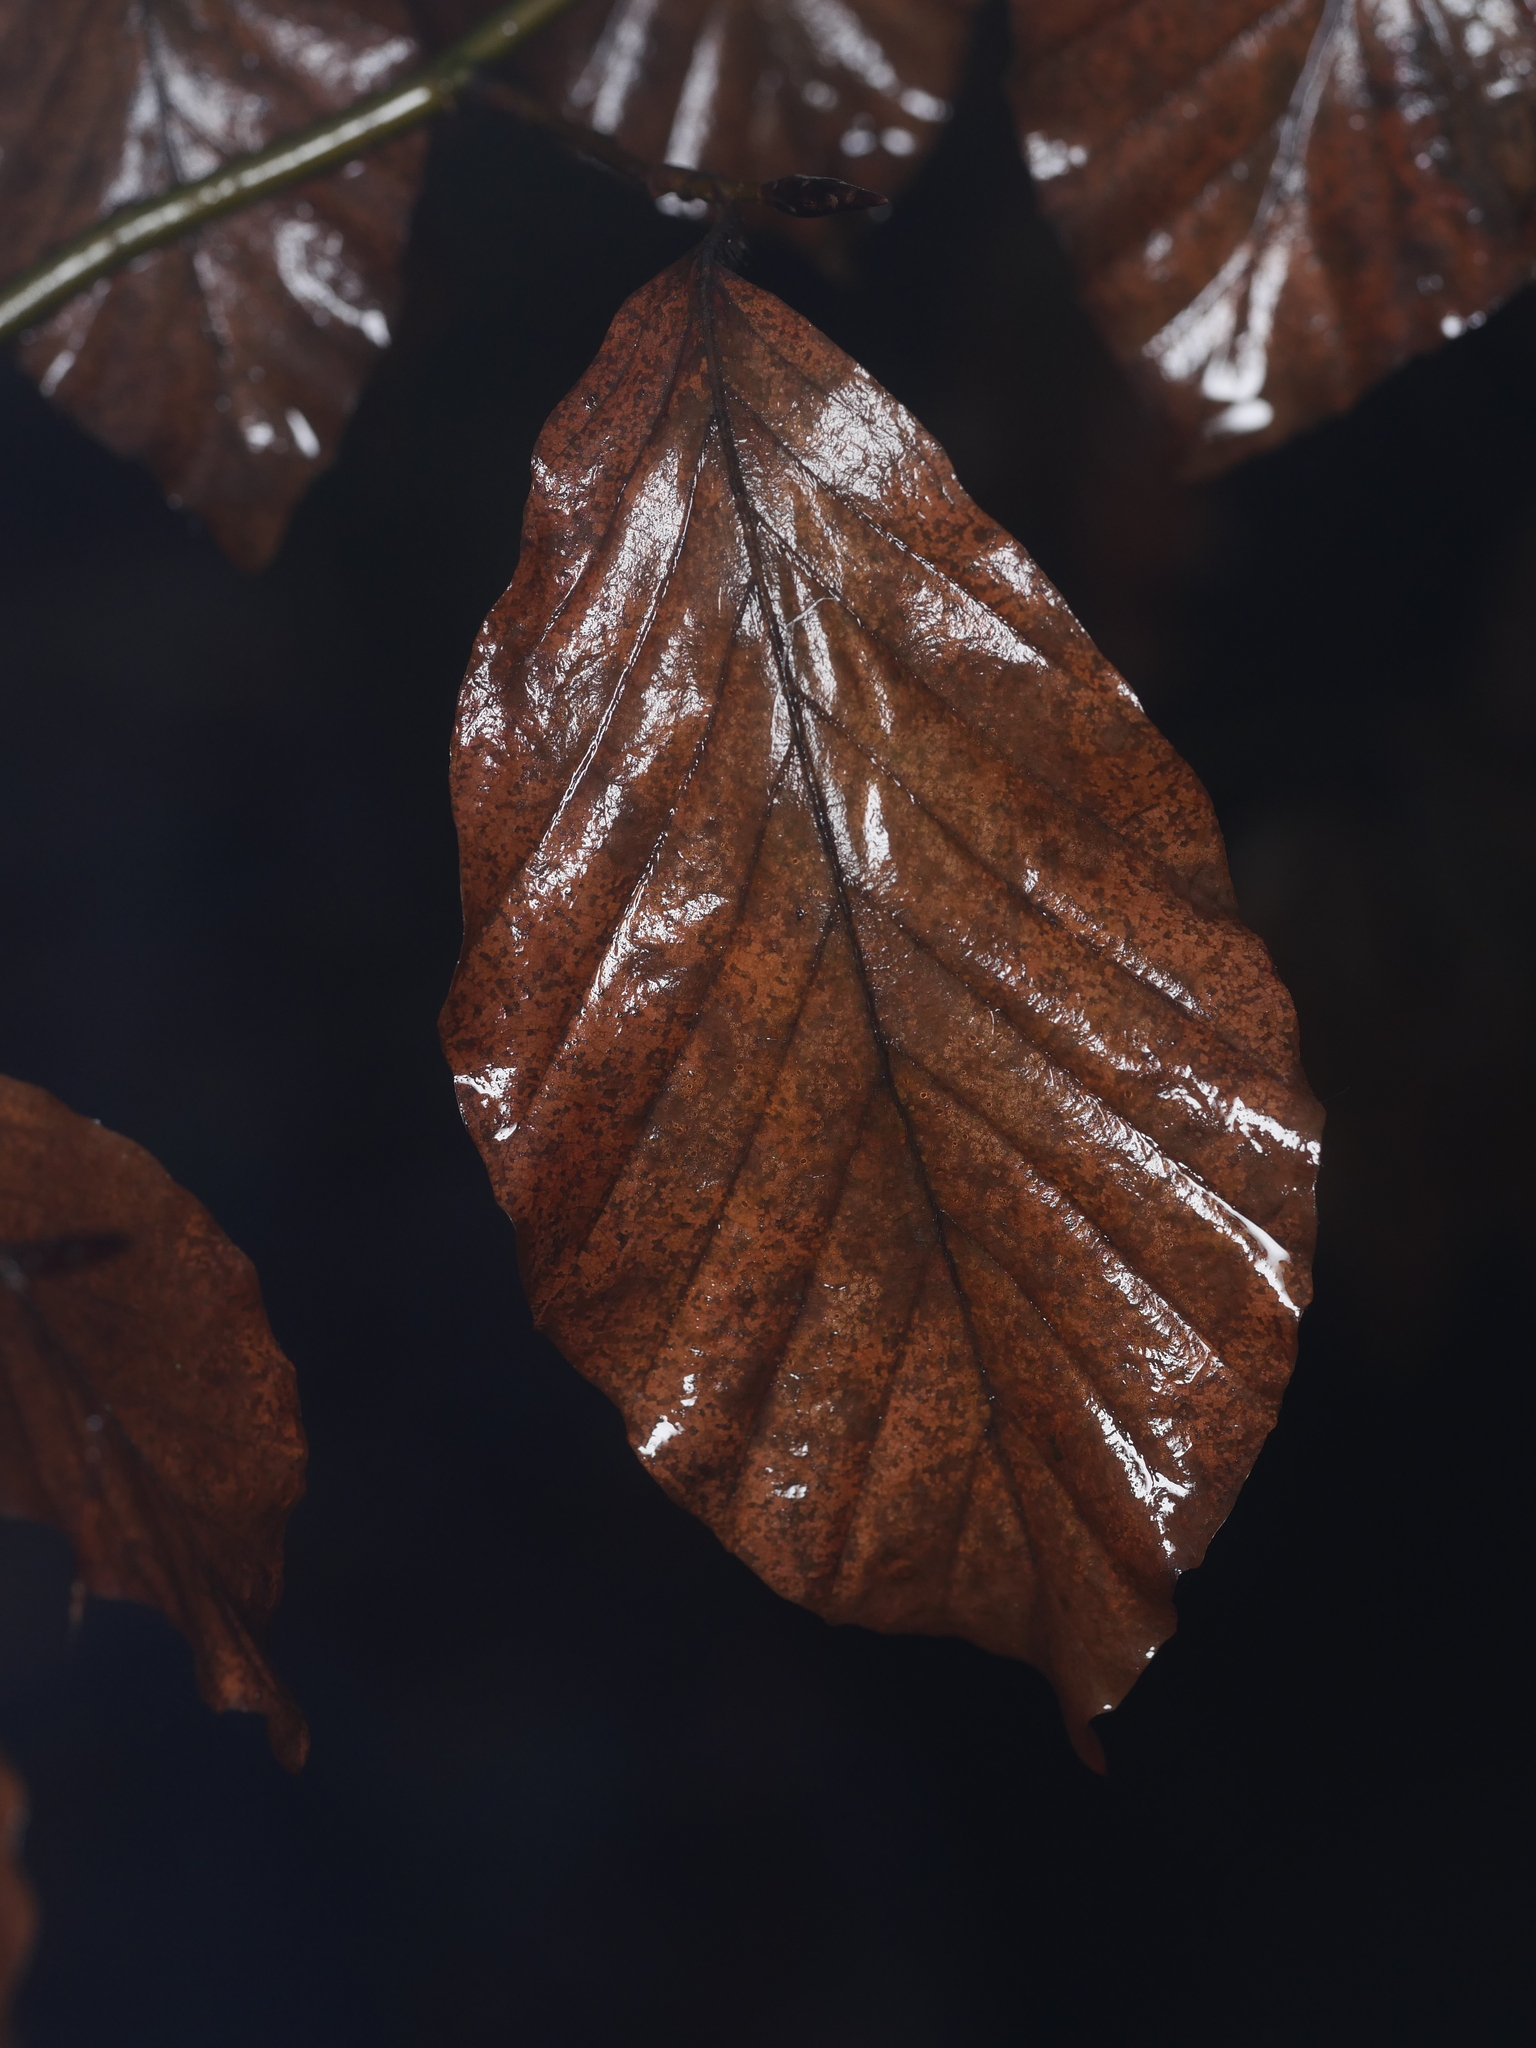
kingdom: Plantae
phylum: Tracheophyta
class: Magnoliopsida
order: Fagales
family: Fagaceae
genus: Fagus
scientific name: Fagus sylvatica
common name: Beech
